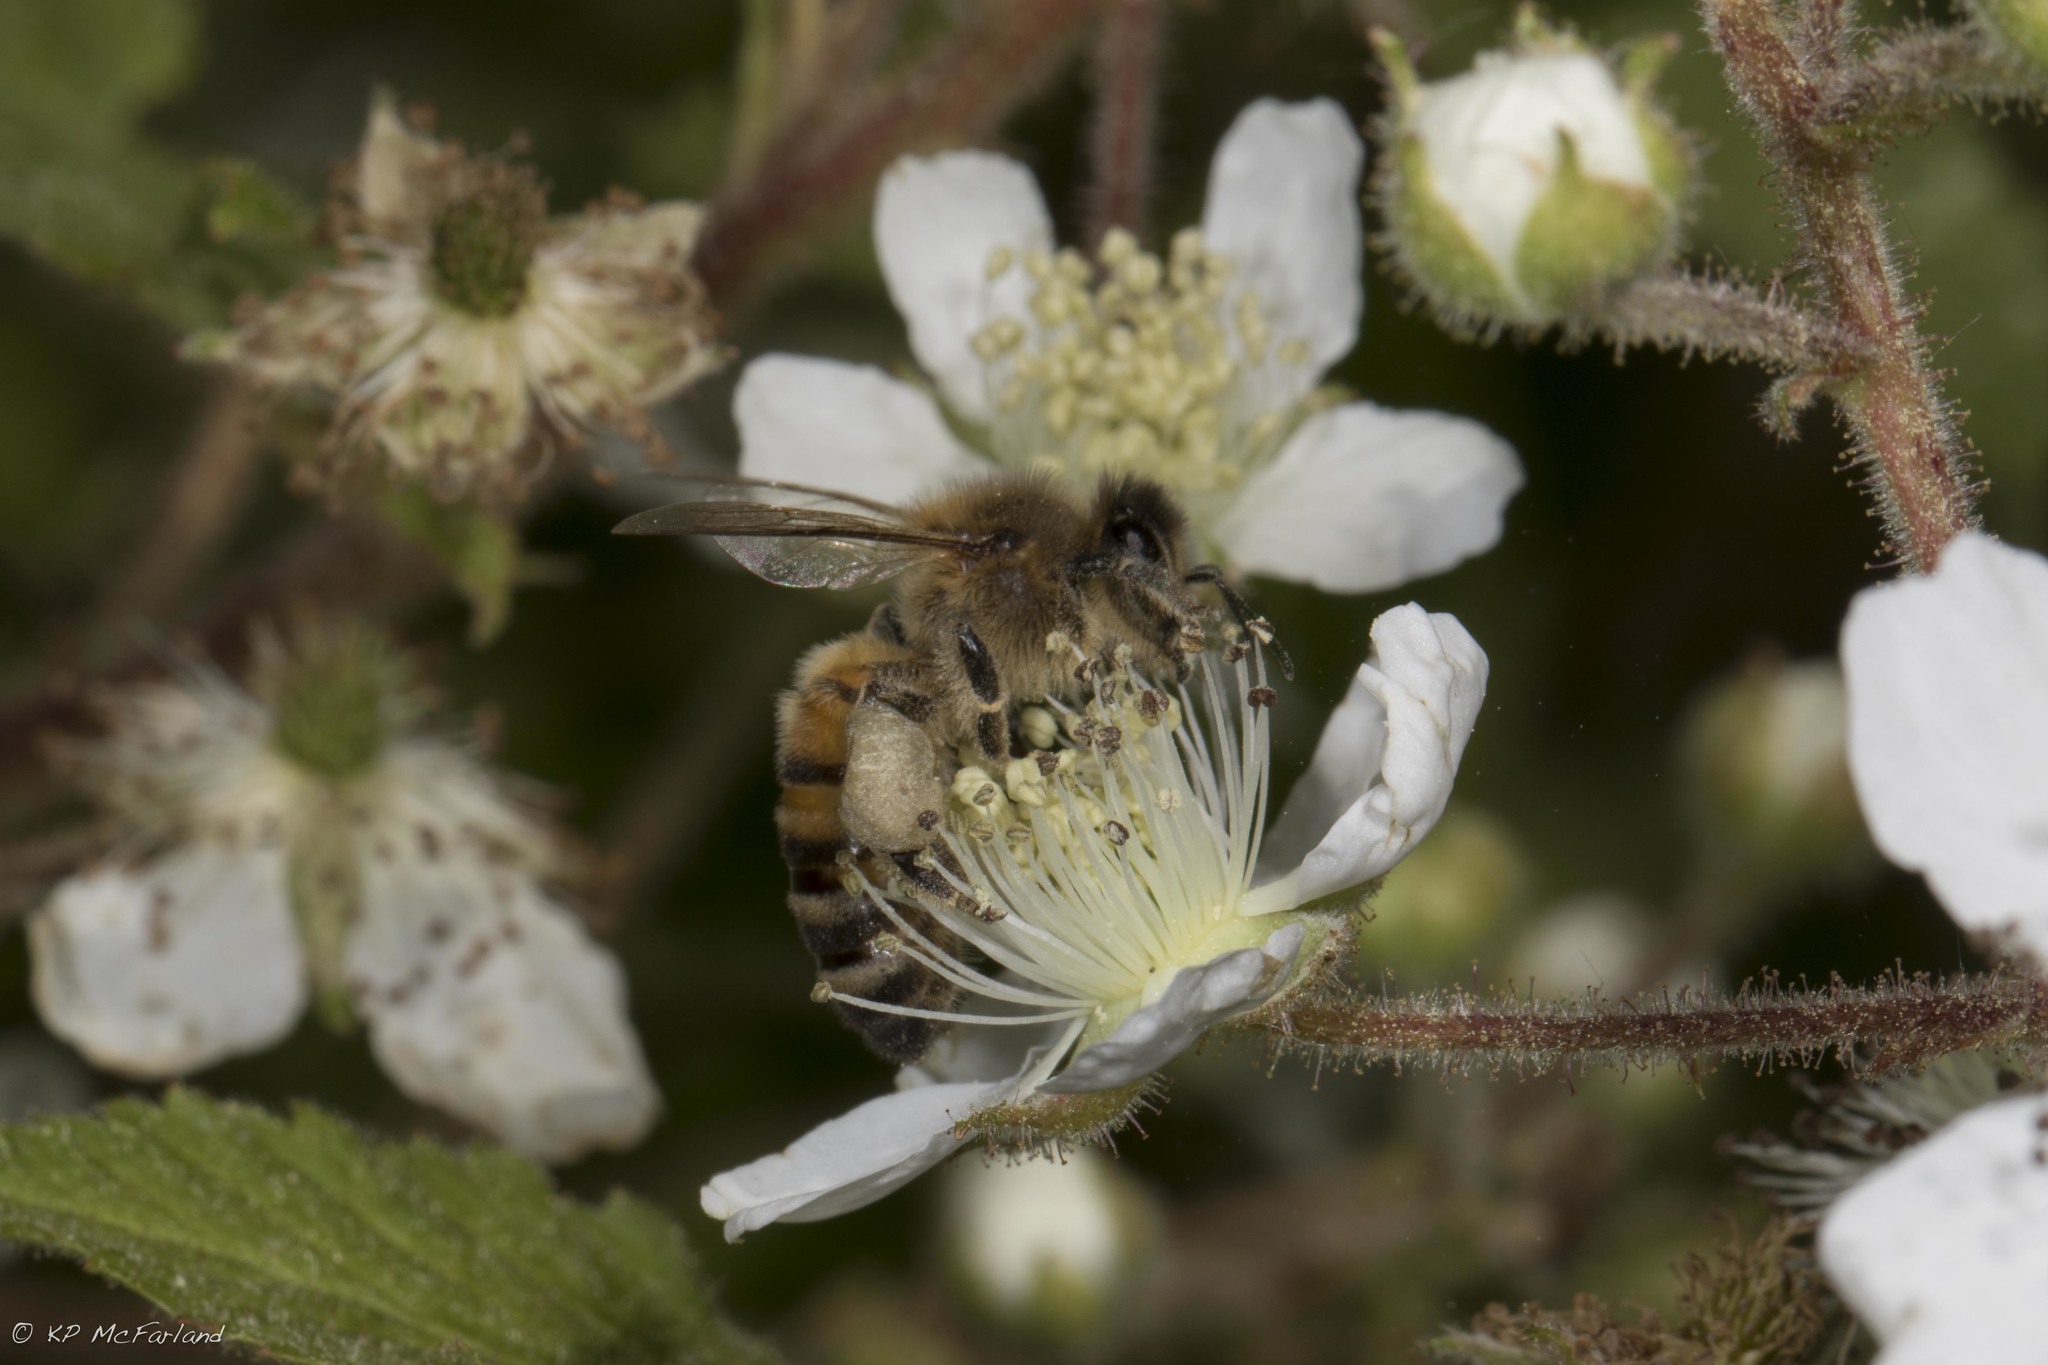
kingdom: Animalia
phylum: Arthropoda
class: Insecta
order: Hymenoptera
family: Apidae
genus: Apis
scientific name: Apis mellifera
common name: Honey bee
